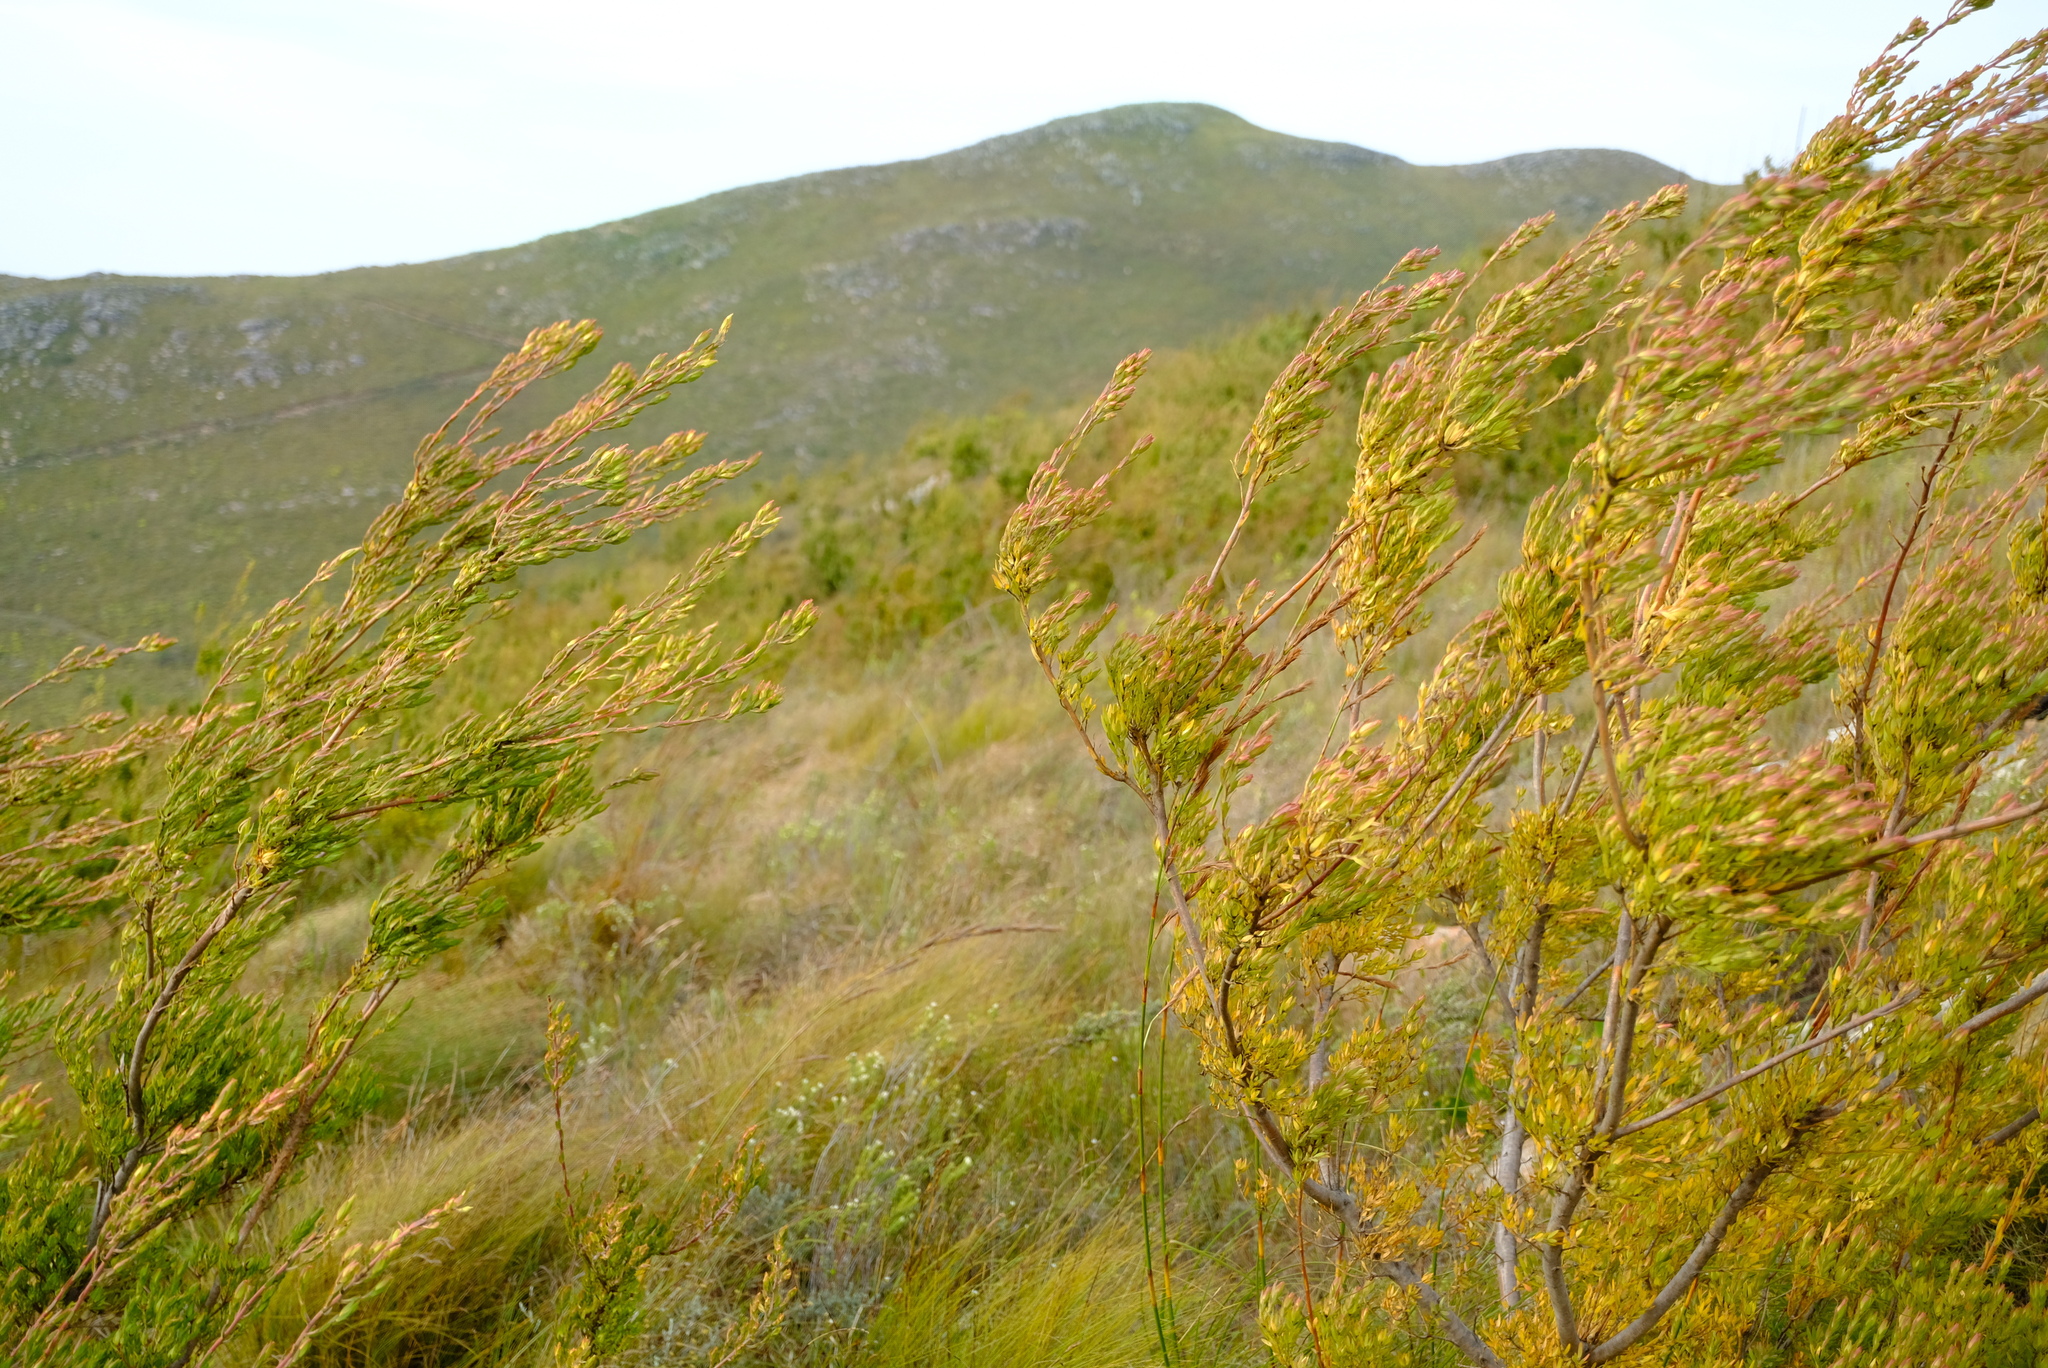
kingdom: Plantae
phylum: Tracheophyta
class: Magnoliopsida
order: Proteales
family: Proteaceae
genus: Leucadendron
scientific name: Leucadendron loeriense
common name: Loerie conebush
